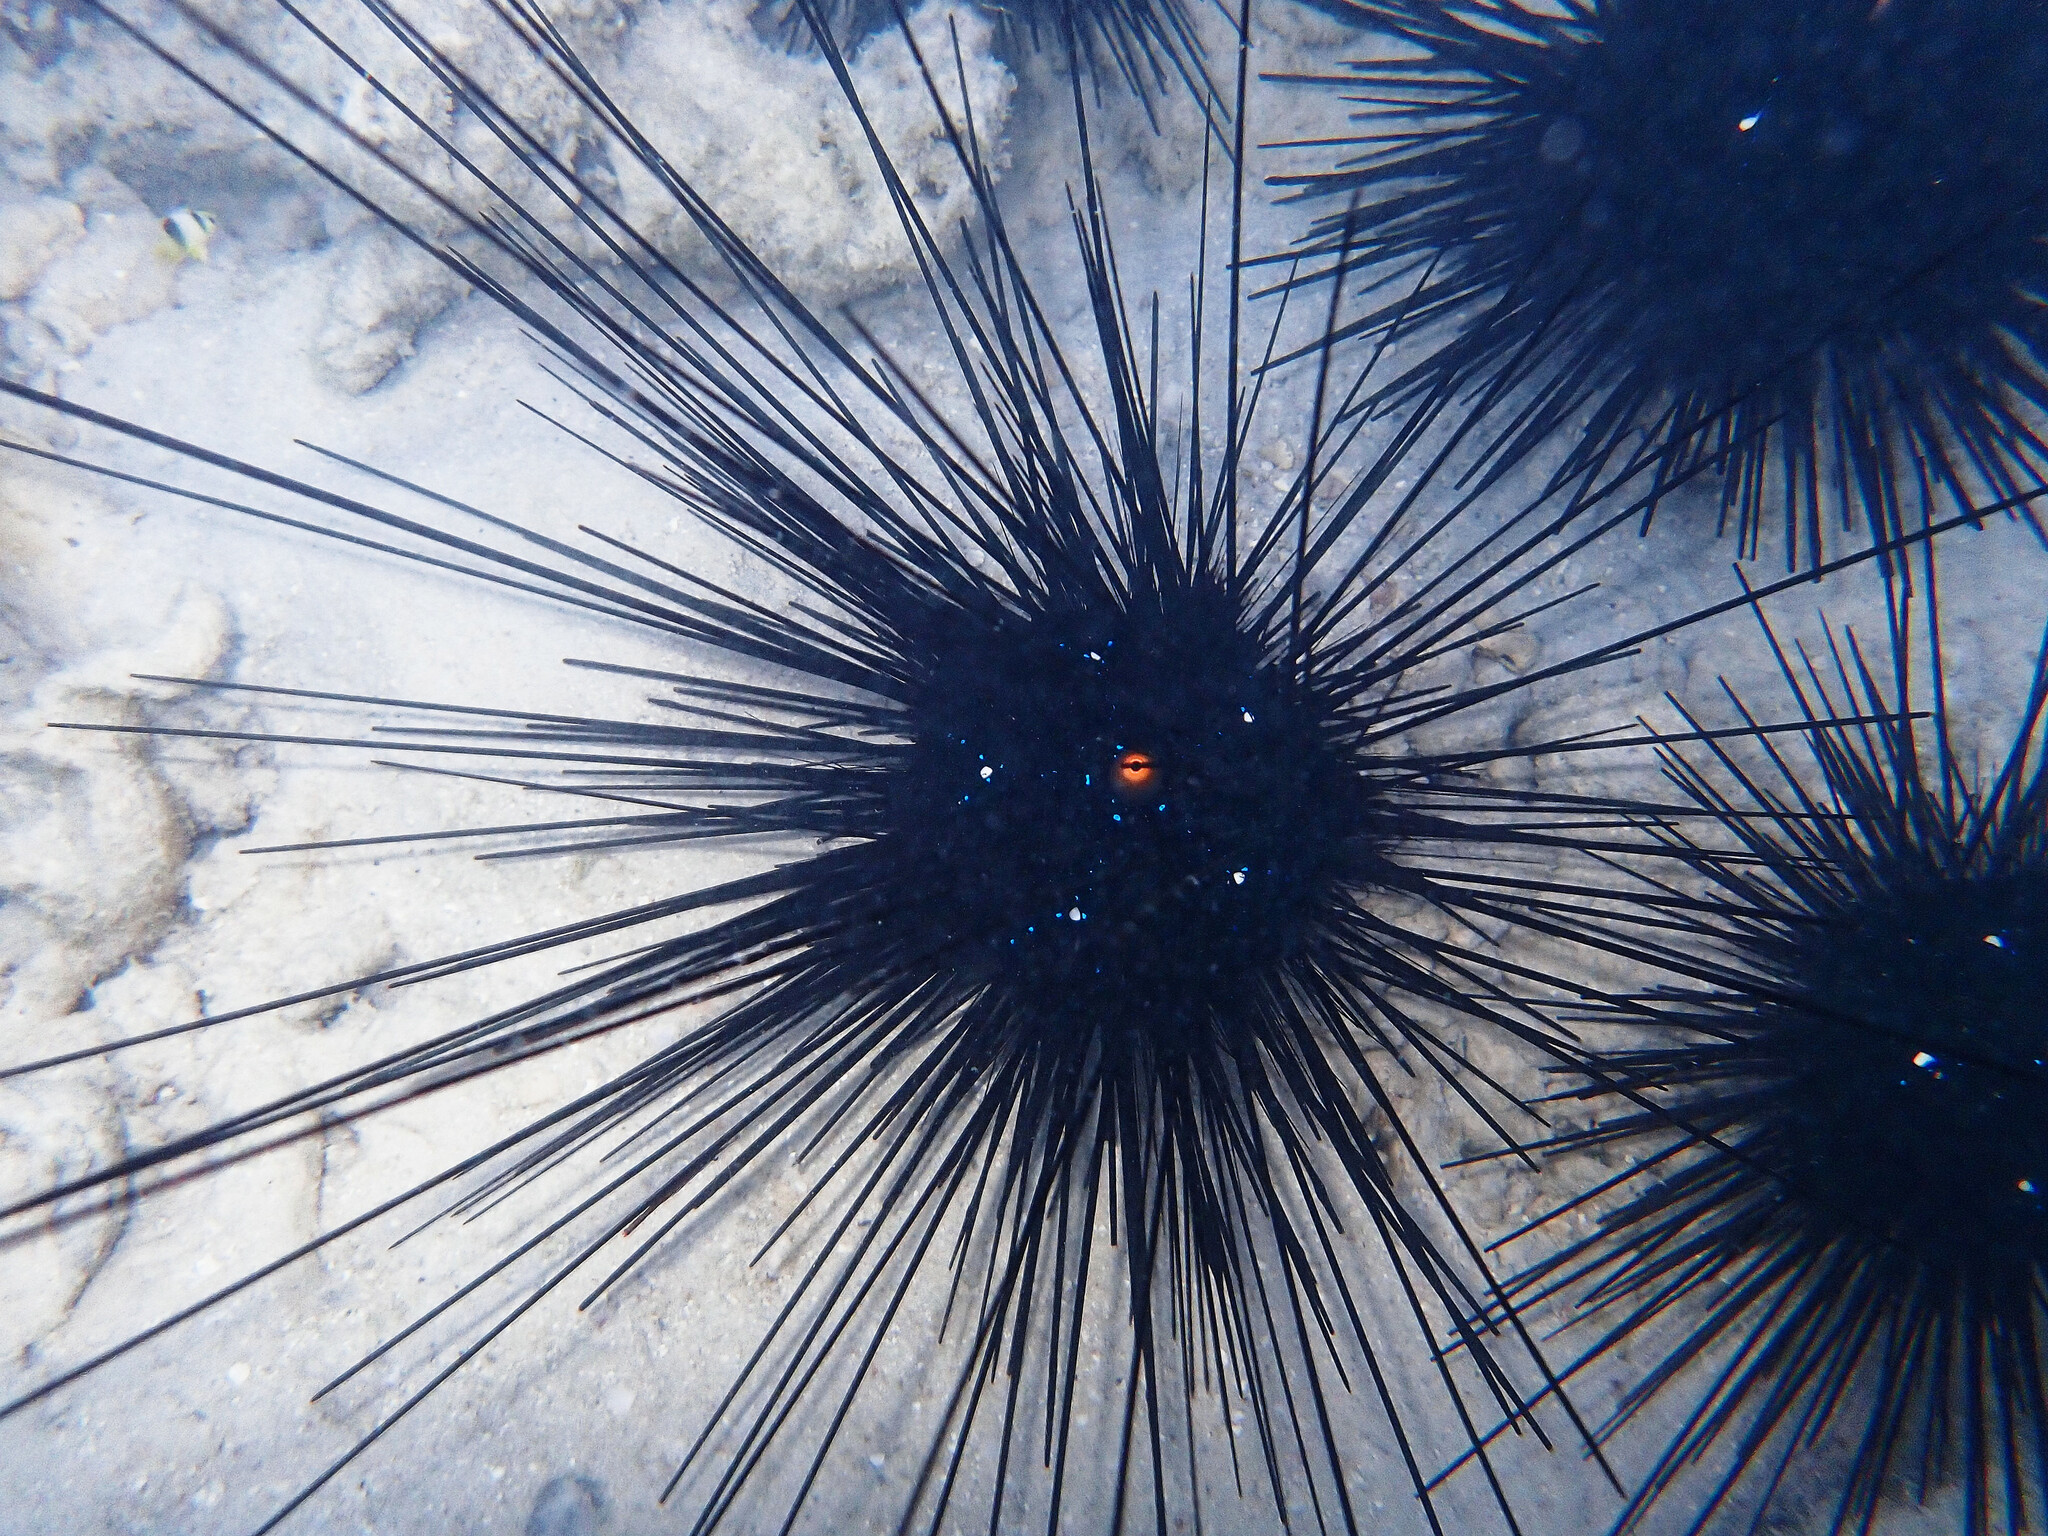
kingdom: Animalia
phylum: Echinodermata
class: Echinoidea
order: Diadematoida
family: Diadematidae
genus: Diadema
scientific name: Diadema setosum
